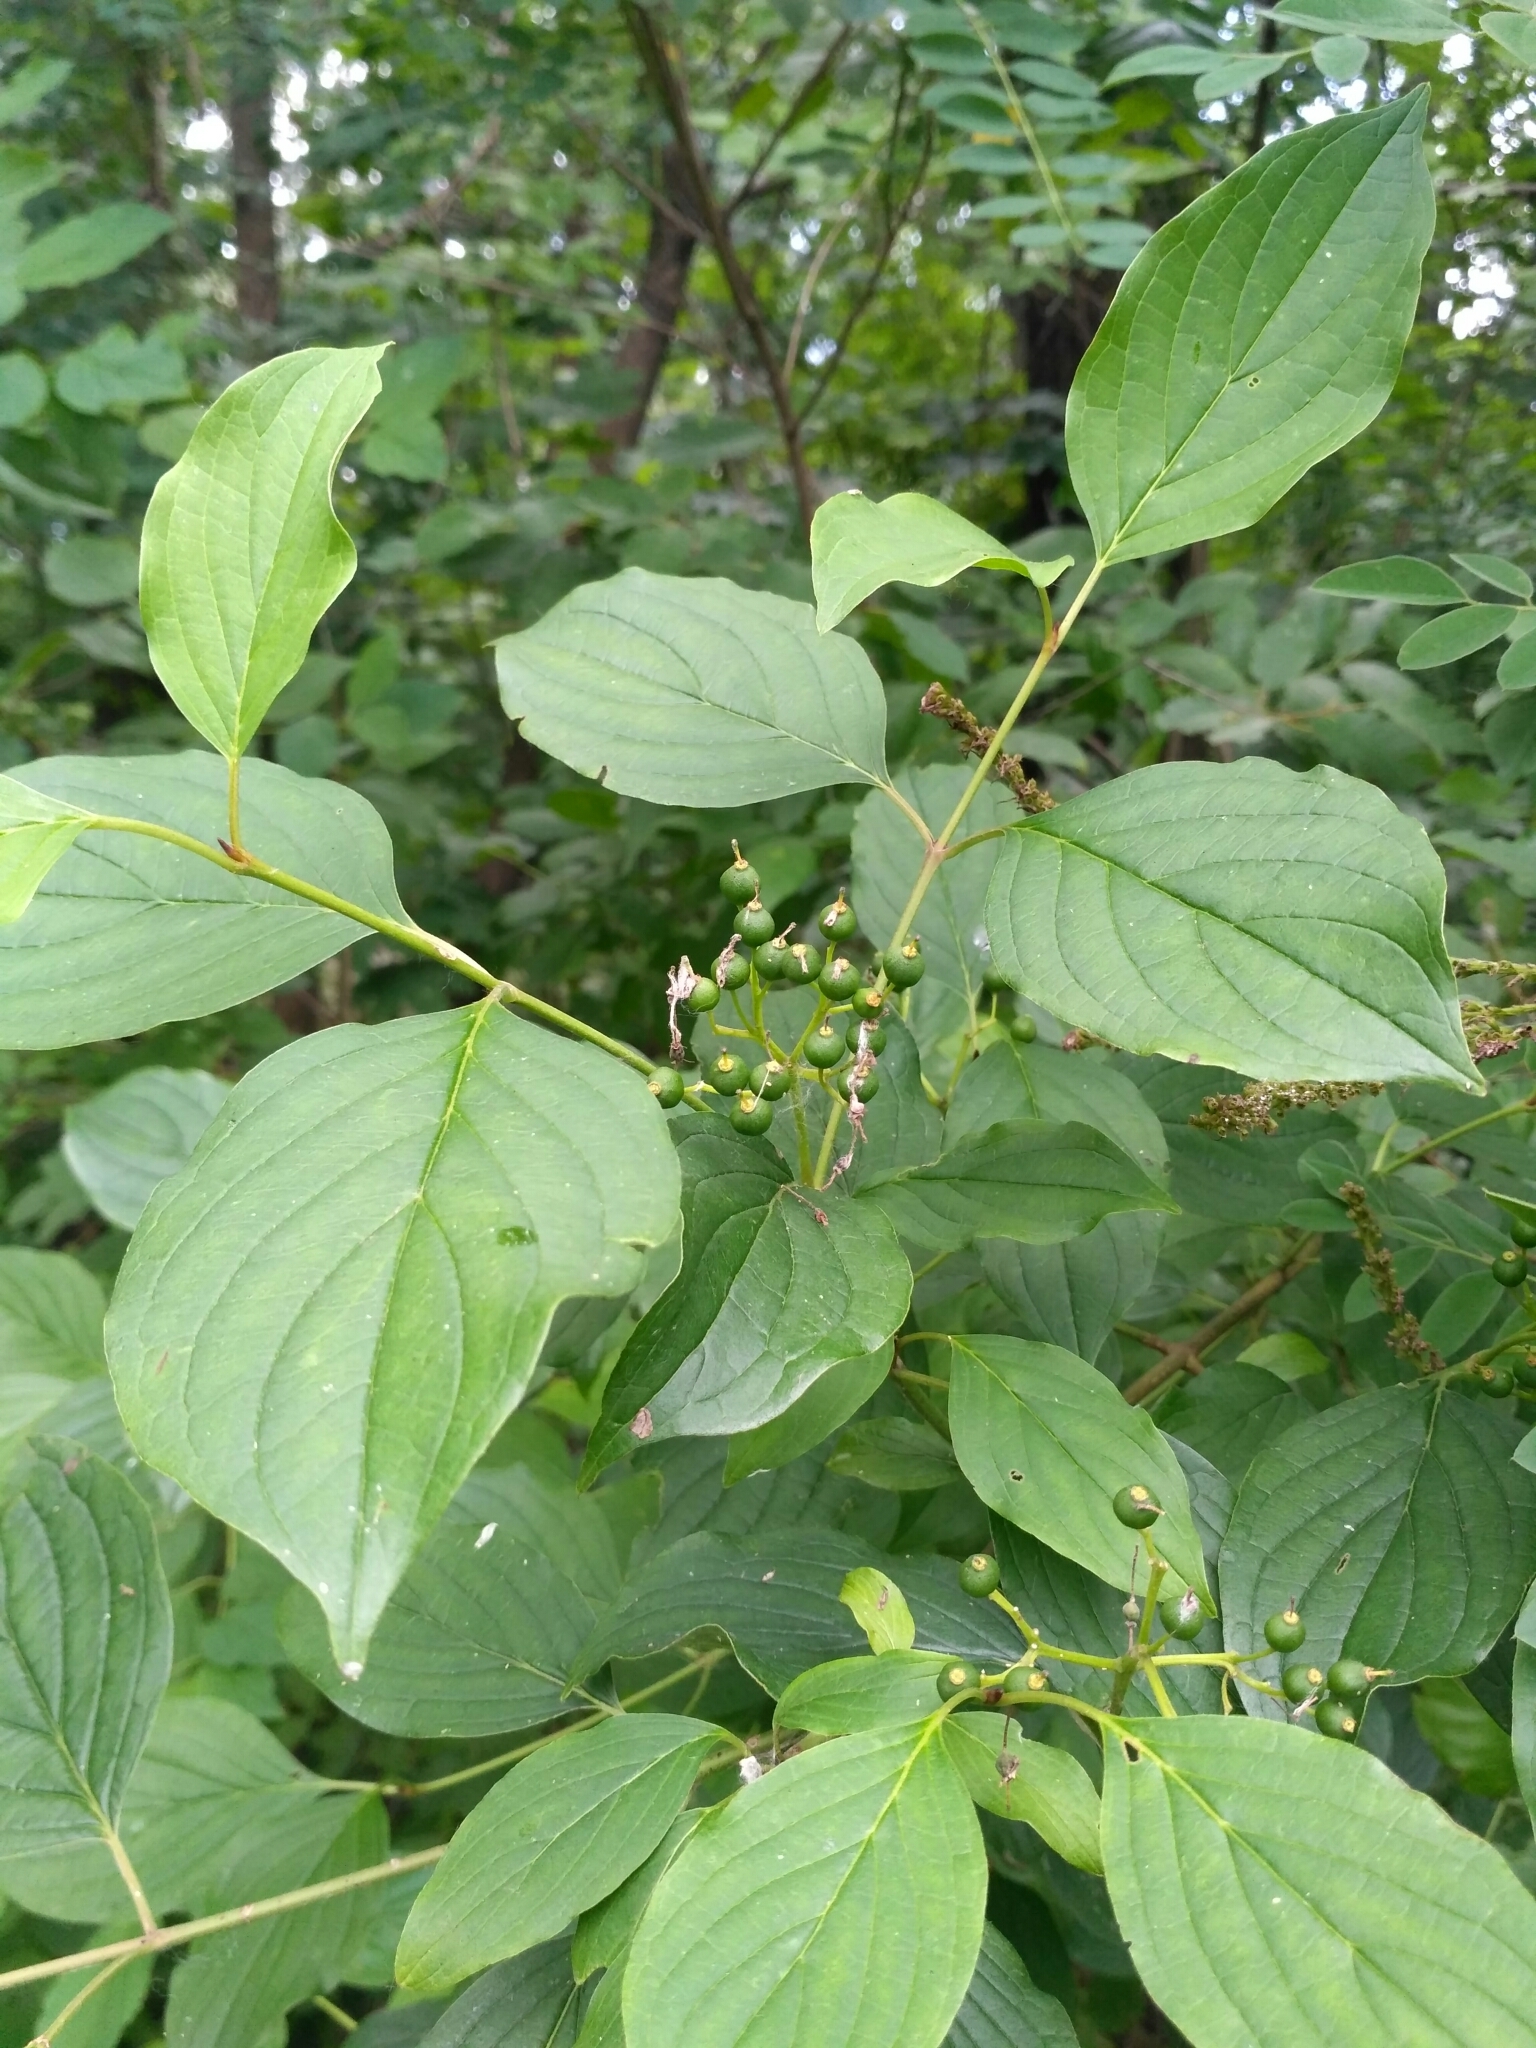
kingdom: Plantae
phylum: Tracheophyta
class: Magnoliopsida
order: Cornales
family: Cornaceae
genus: Cornus
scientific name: Cornus sanguinea
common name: Dogwood
